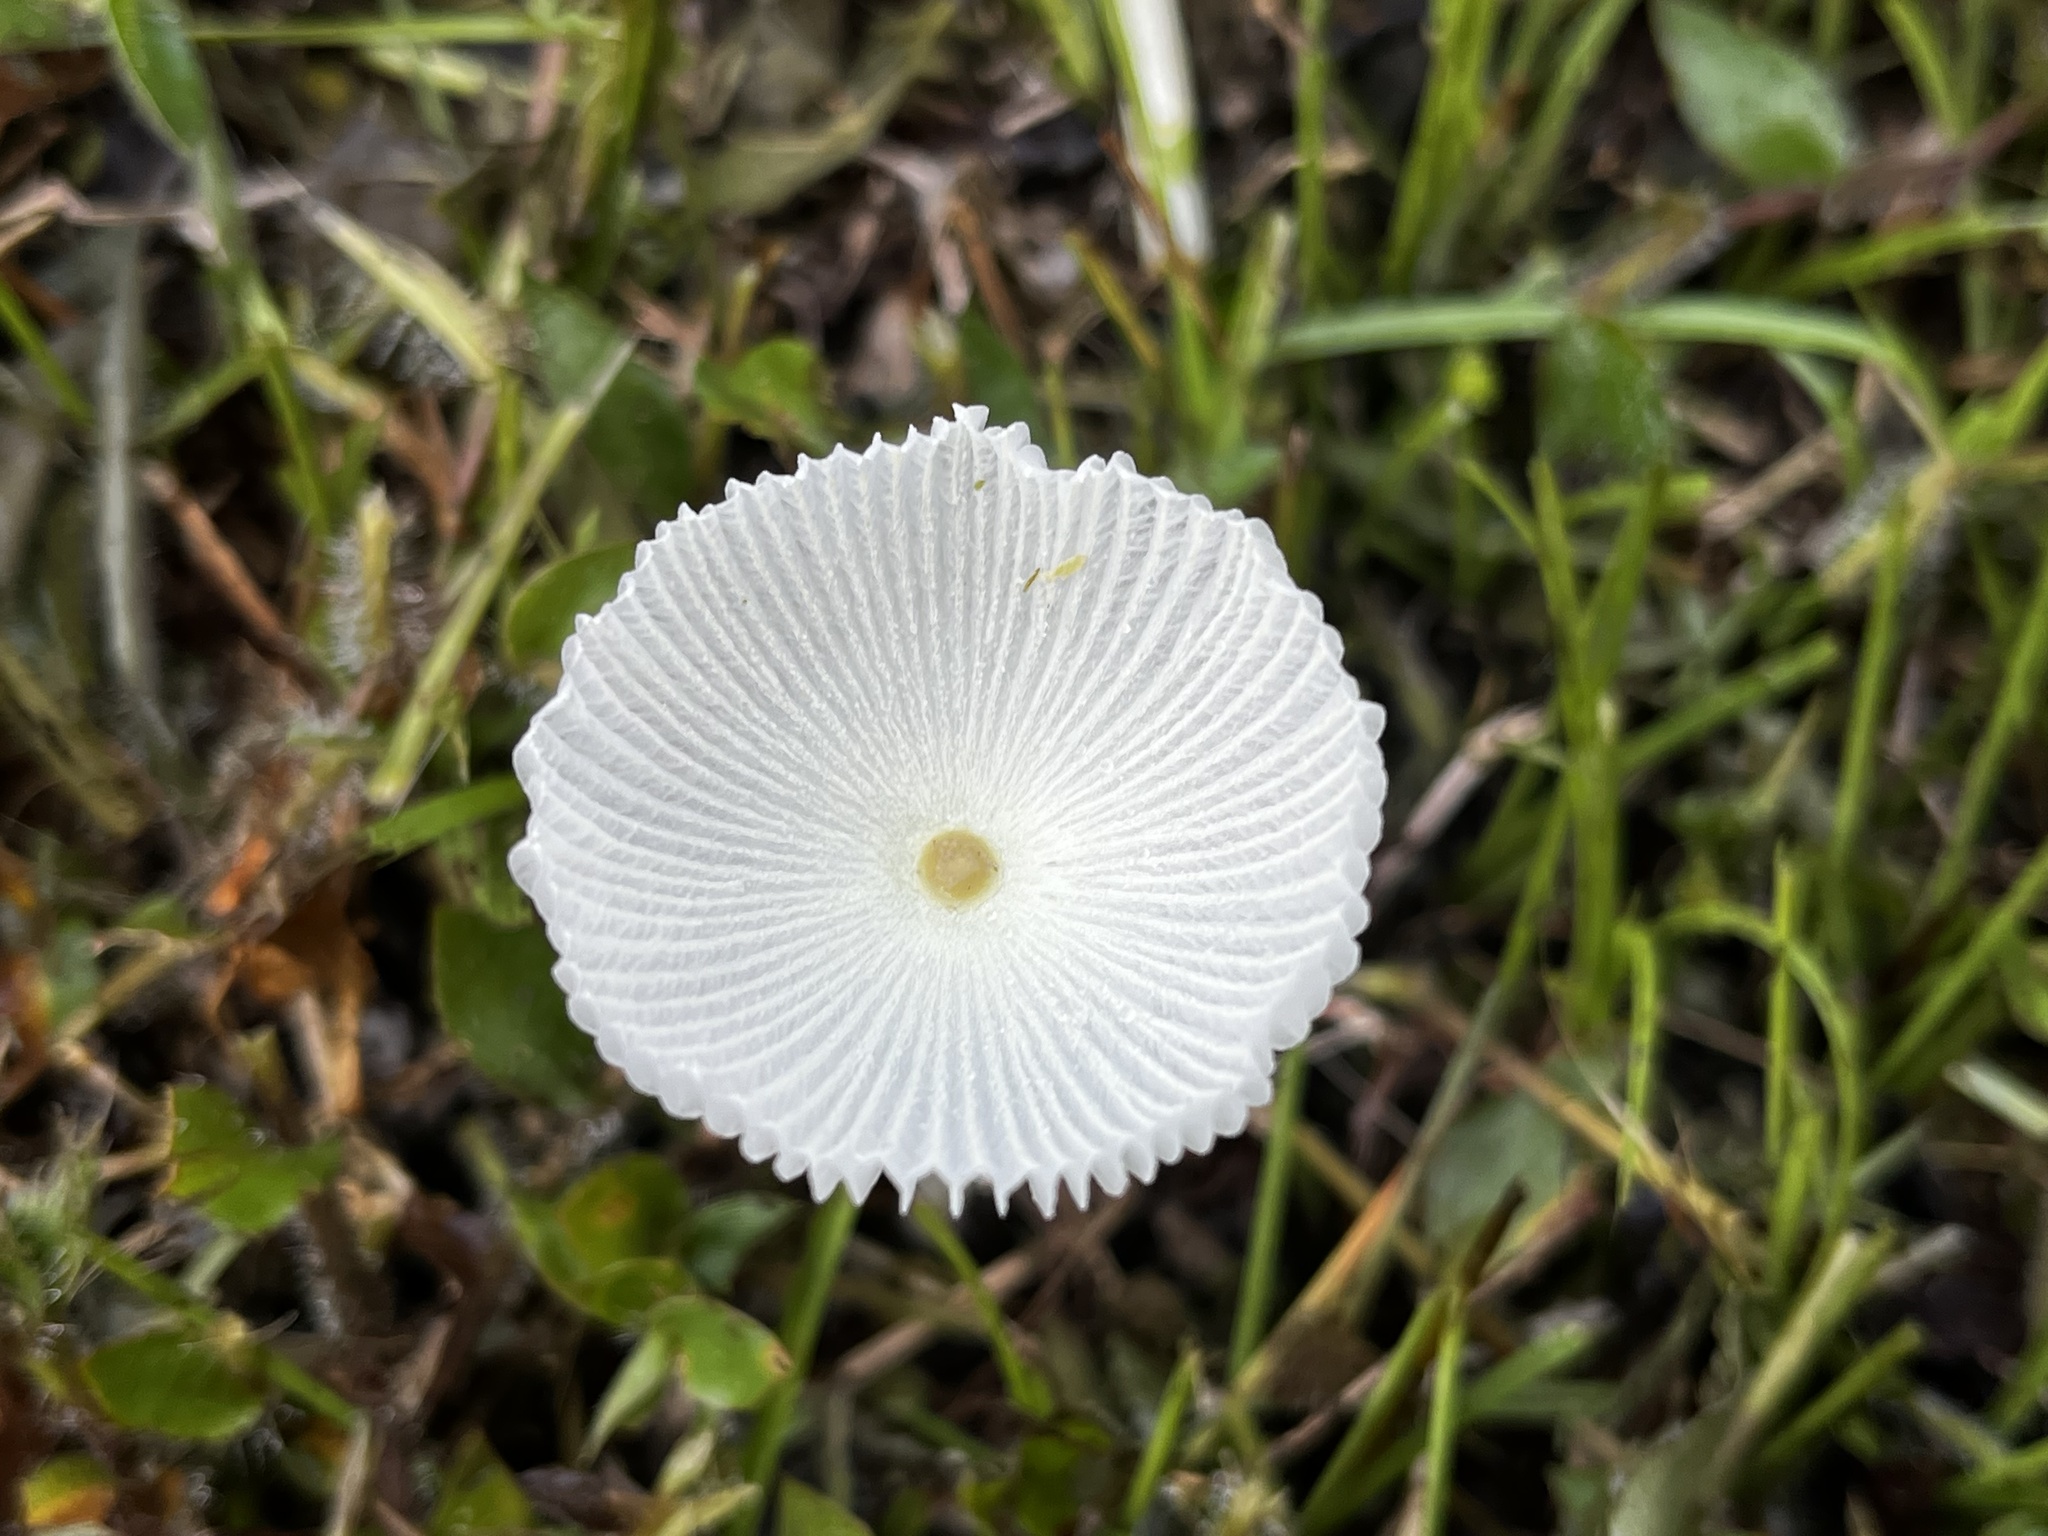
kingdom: Fungi
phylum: Basidiomycota
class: Agaricomycetes
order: Agaricales
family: Agaricaceae
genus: Leucocoprinus
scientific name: Leucocoprinus fragilissimus
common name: Fragile dapperling
